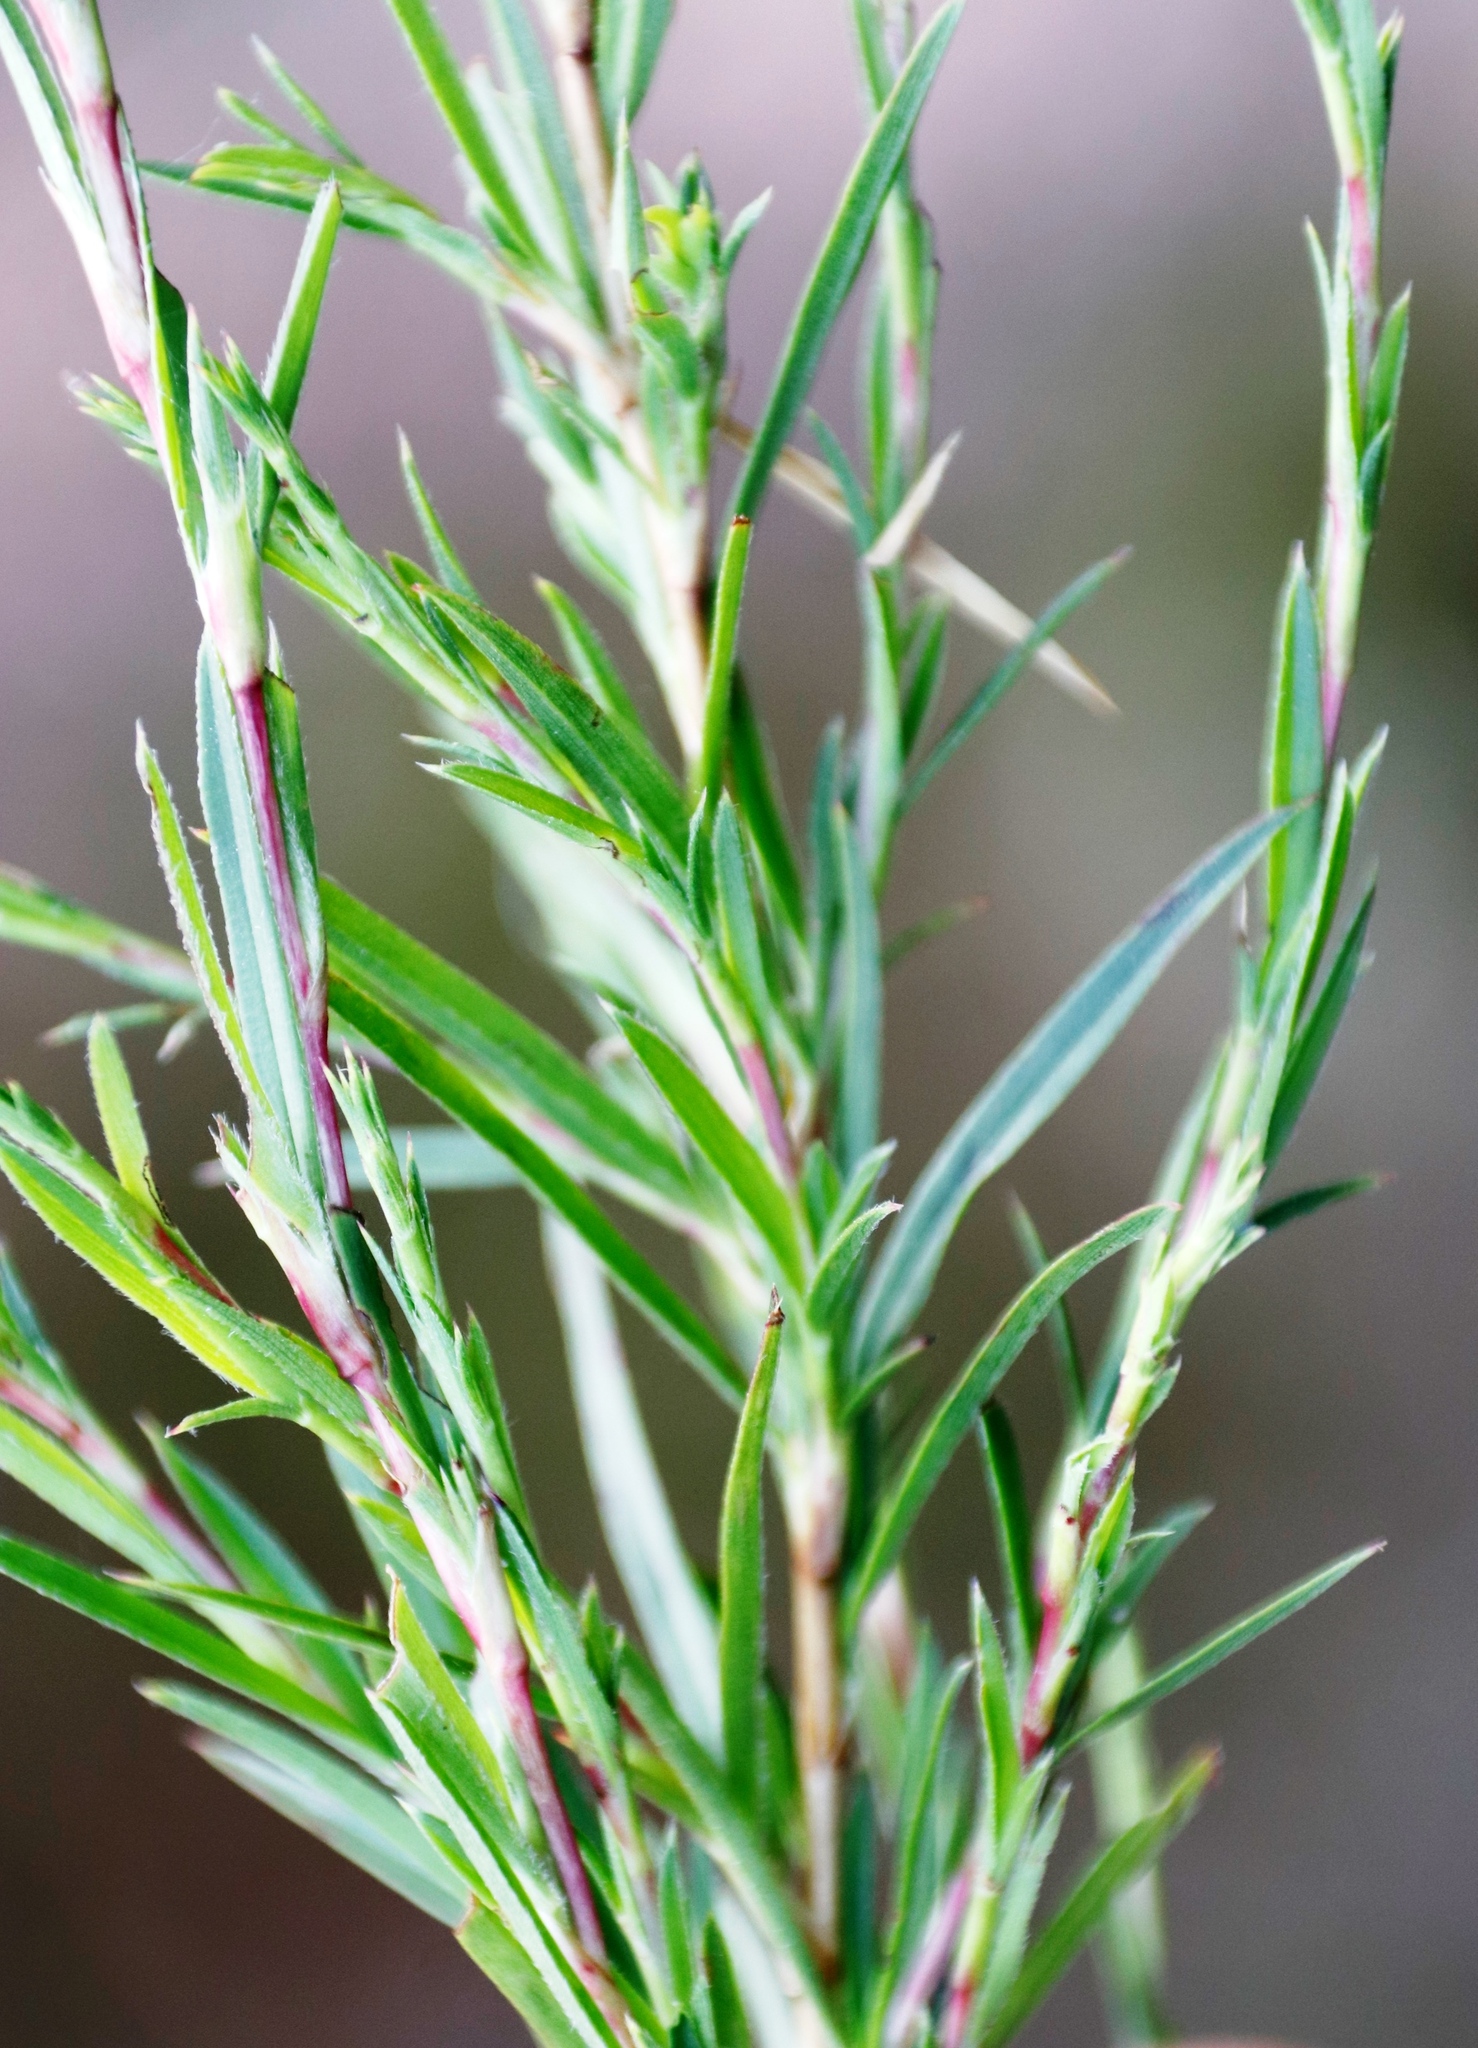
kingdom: Plantae
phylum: Tracheophyta
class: Magnoliopsida
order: Rosales
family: Rosaceae
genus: Cliffortia
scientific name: Cliffortia strobilifera
